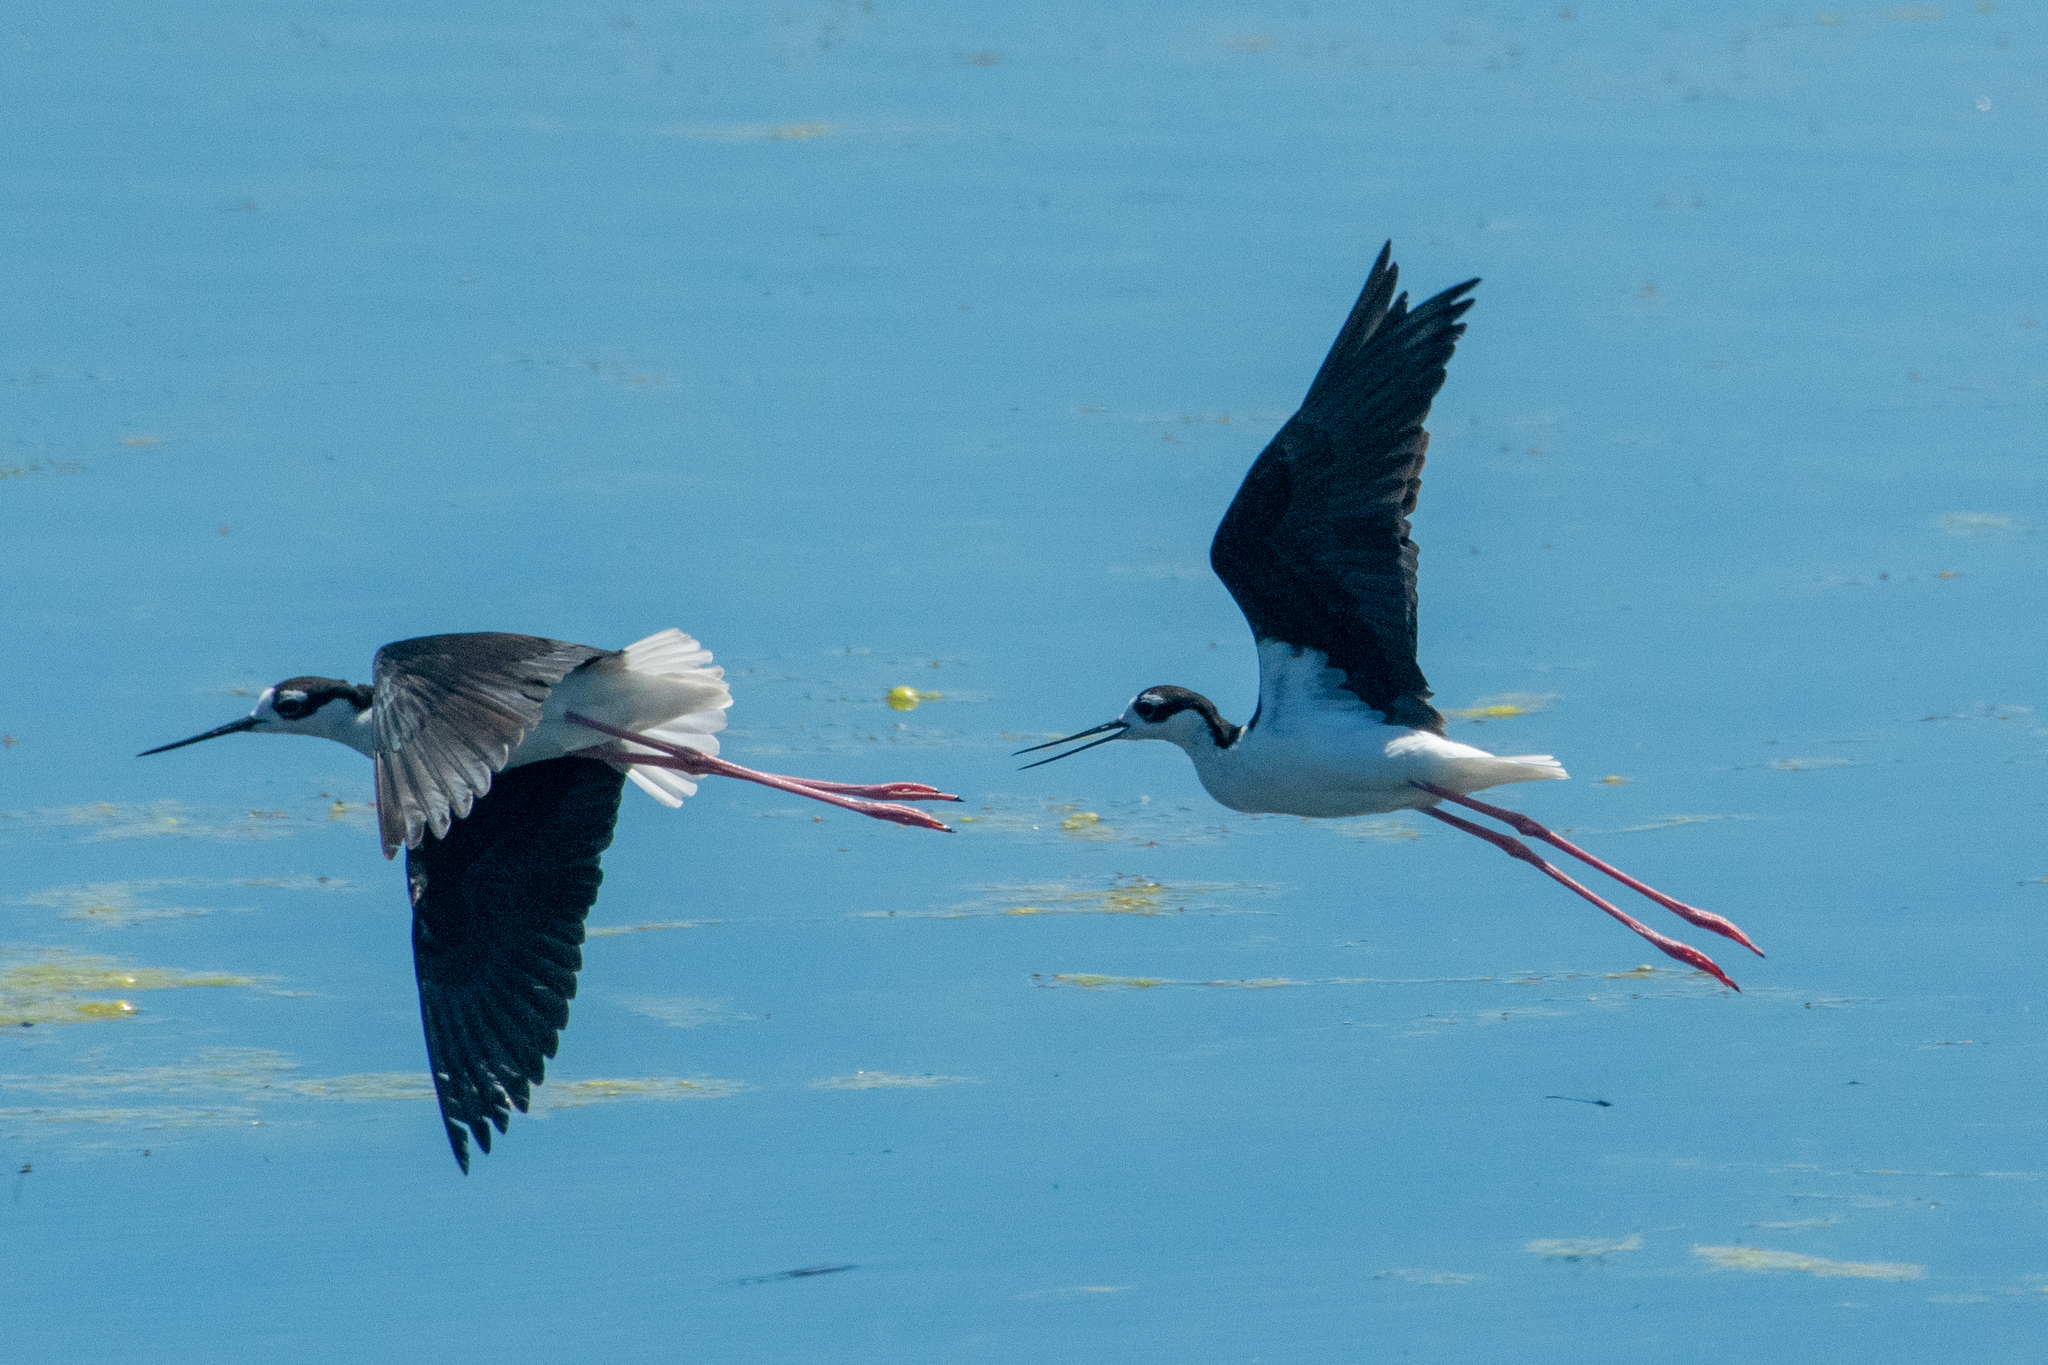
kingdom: Animalia
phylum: Chordata
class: Aves
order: Charadriiformes
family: Recurvirostridae
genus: Himantopus
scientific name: Himantopus mexicanus
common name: Black-necked stilt
